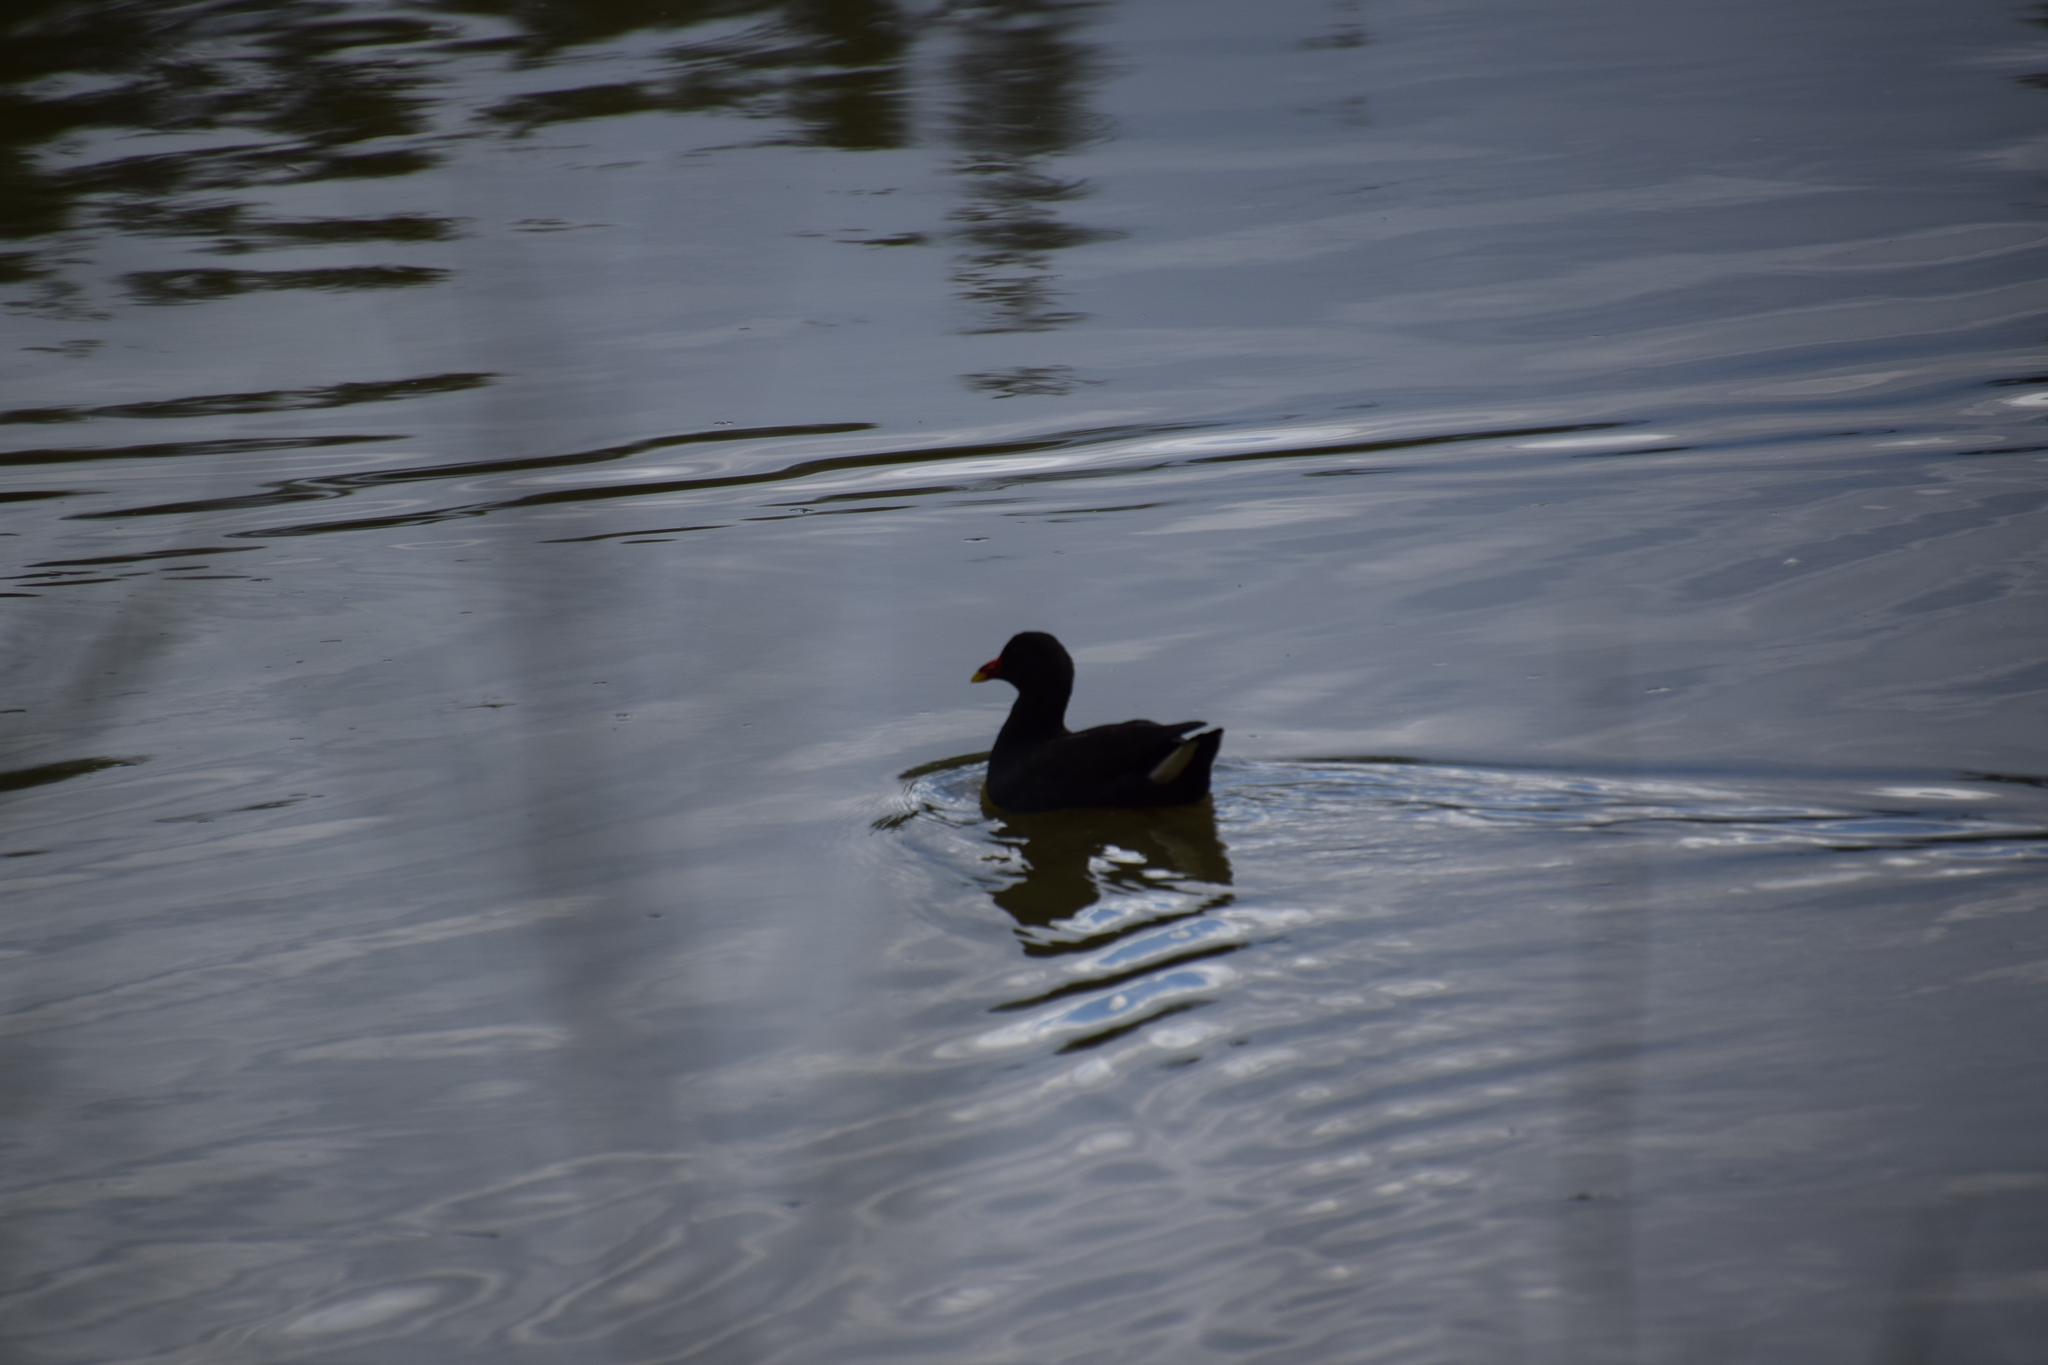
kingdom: Animalia
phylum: Chordata
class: Aves
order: Gruiformes
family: Rallidae
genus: Gallinula
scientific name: Gallinula tenebrosa
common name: Dusky moorhen
